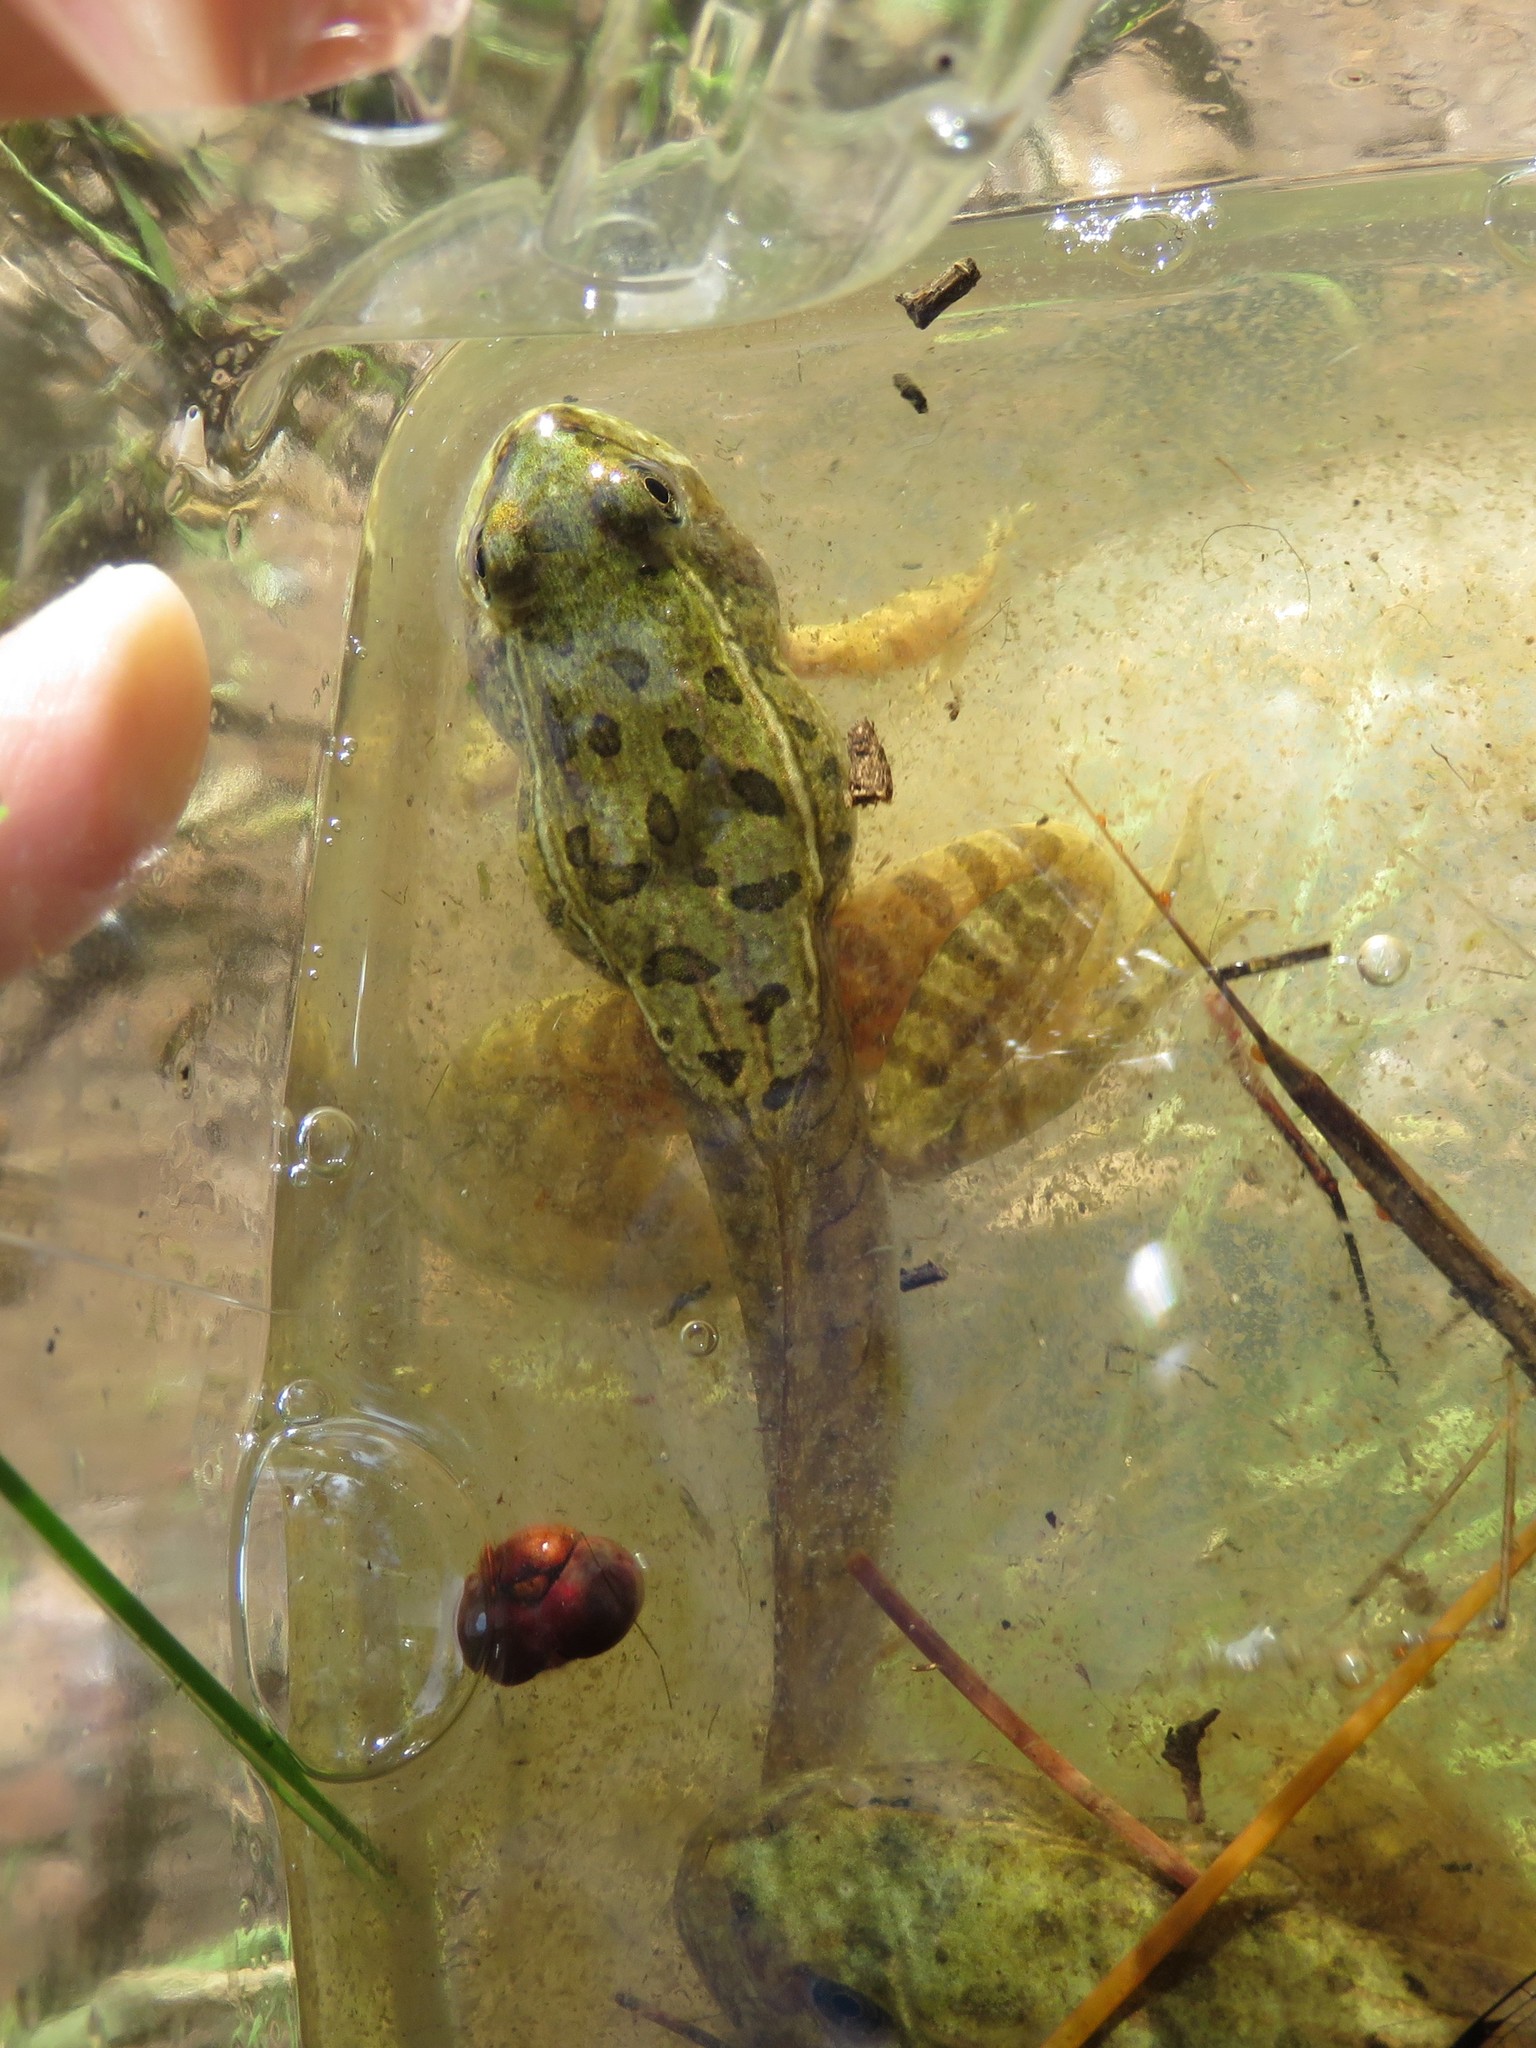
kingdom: Animalia
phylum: Chordata
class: Amphibia
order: Anura
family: Ranidae
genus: Lithobates
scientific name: Lithobates berlandieri
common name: Rio grande leopard frog
